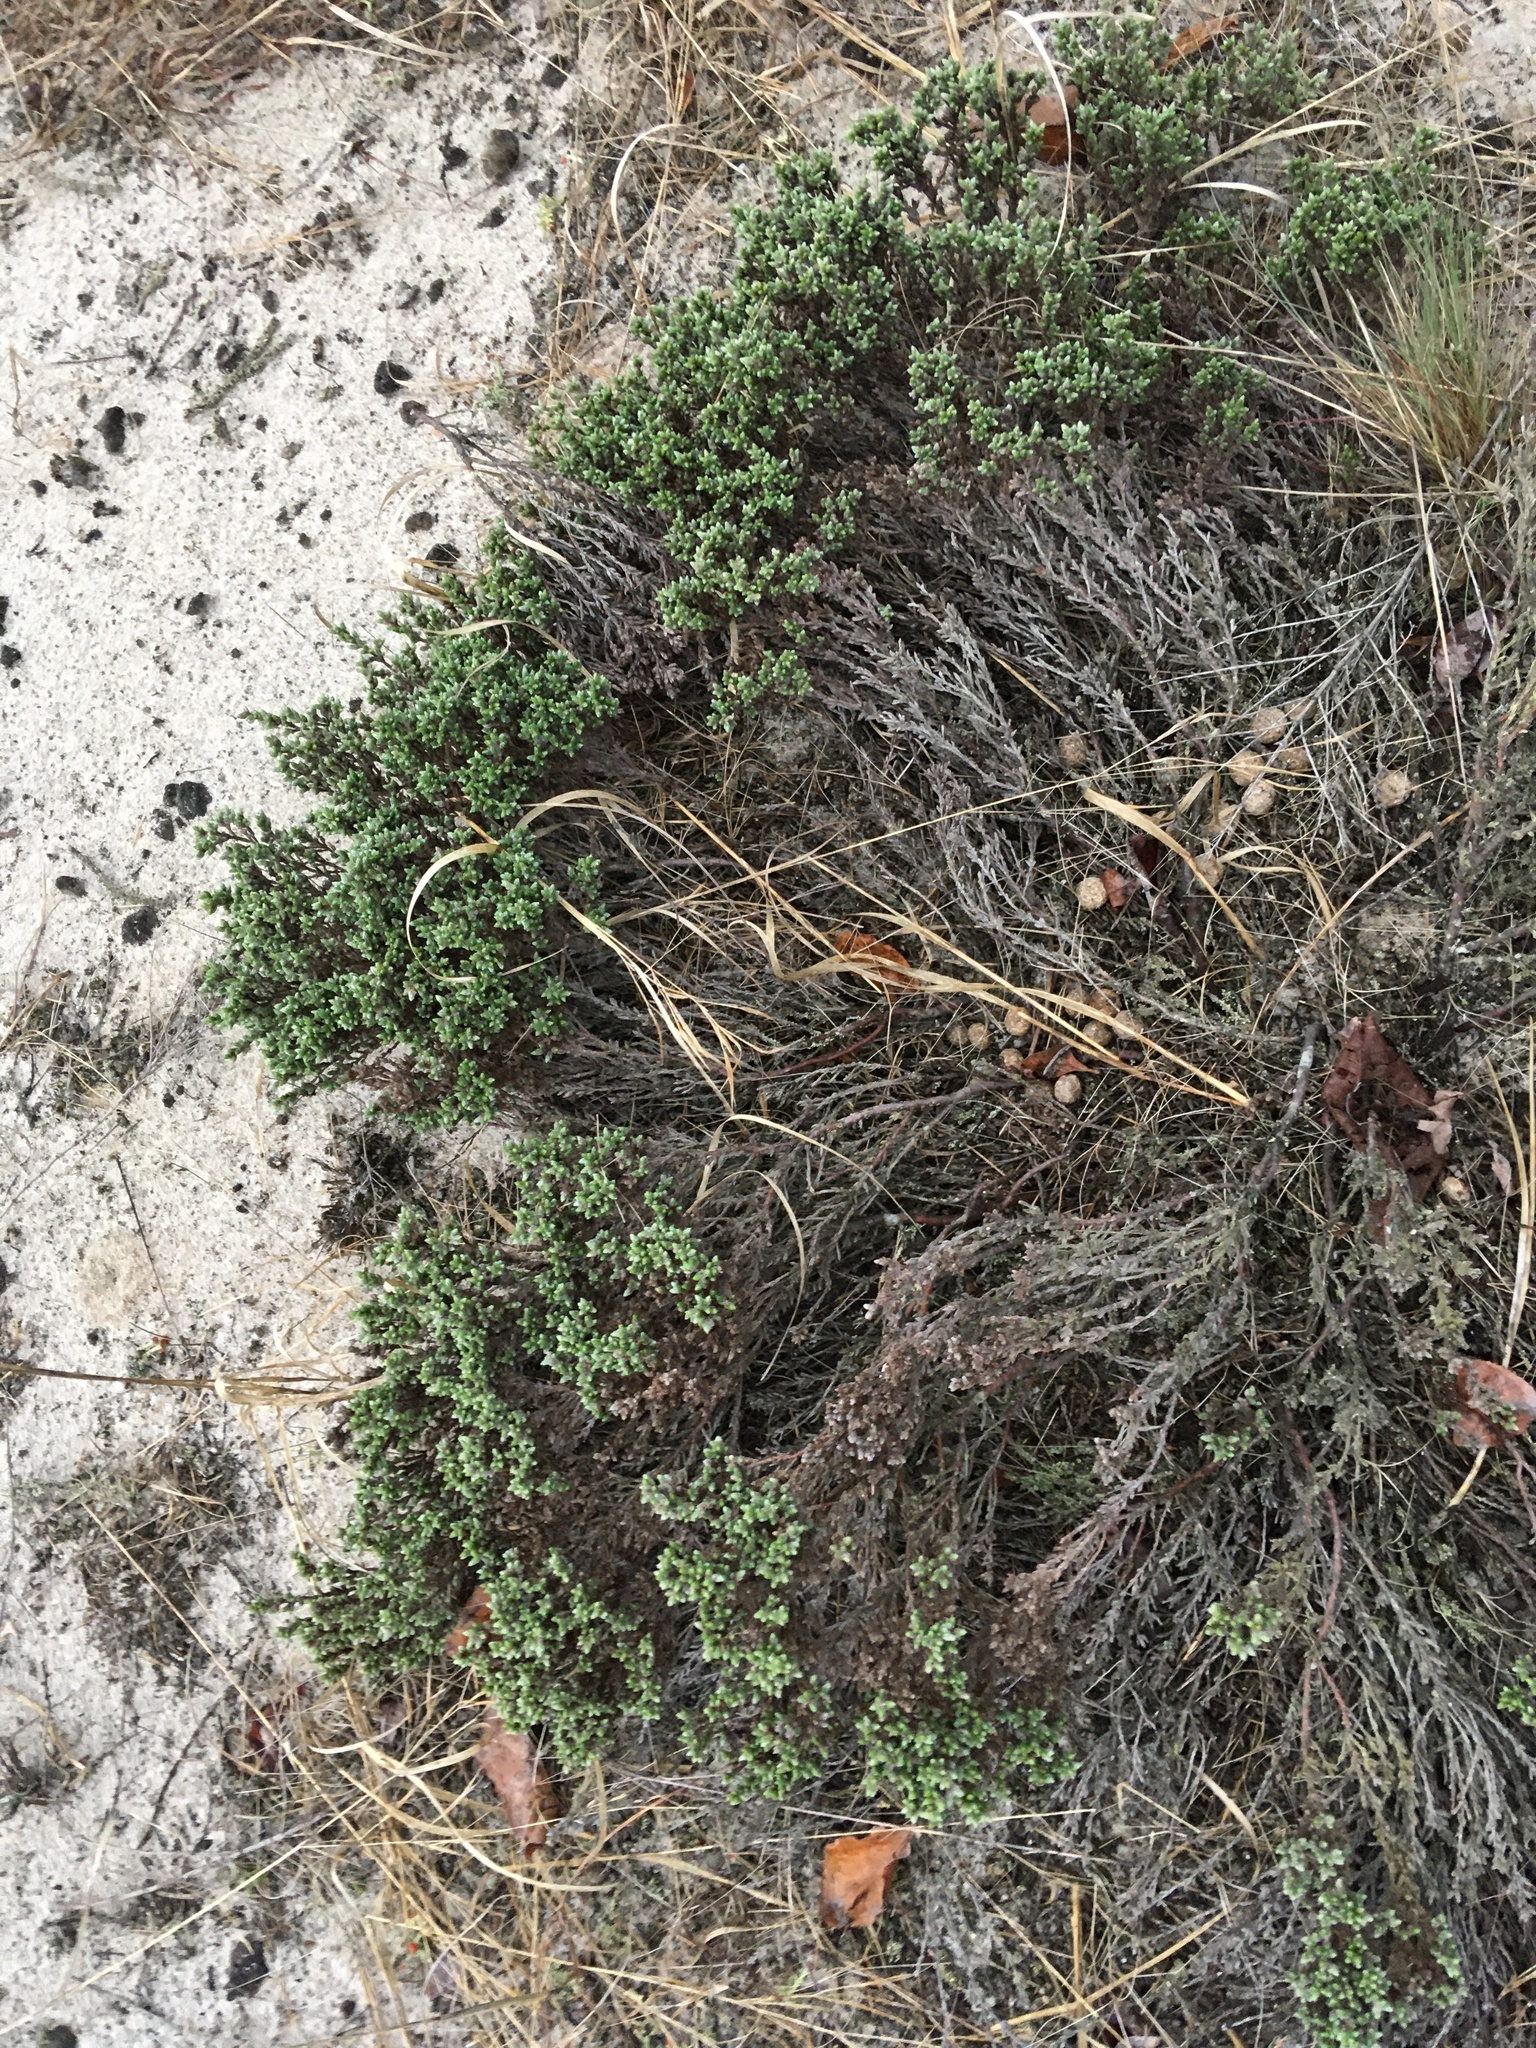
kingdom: Plantae
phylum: Tracheophyta
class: Magnoliopsida
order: Malvales
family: Cistaceae
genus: Hudsonia
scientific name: Hudsonia tomentosa
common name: Beach-heath
